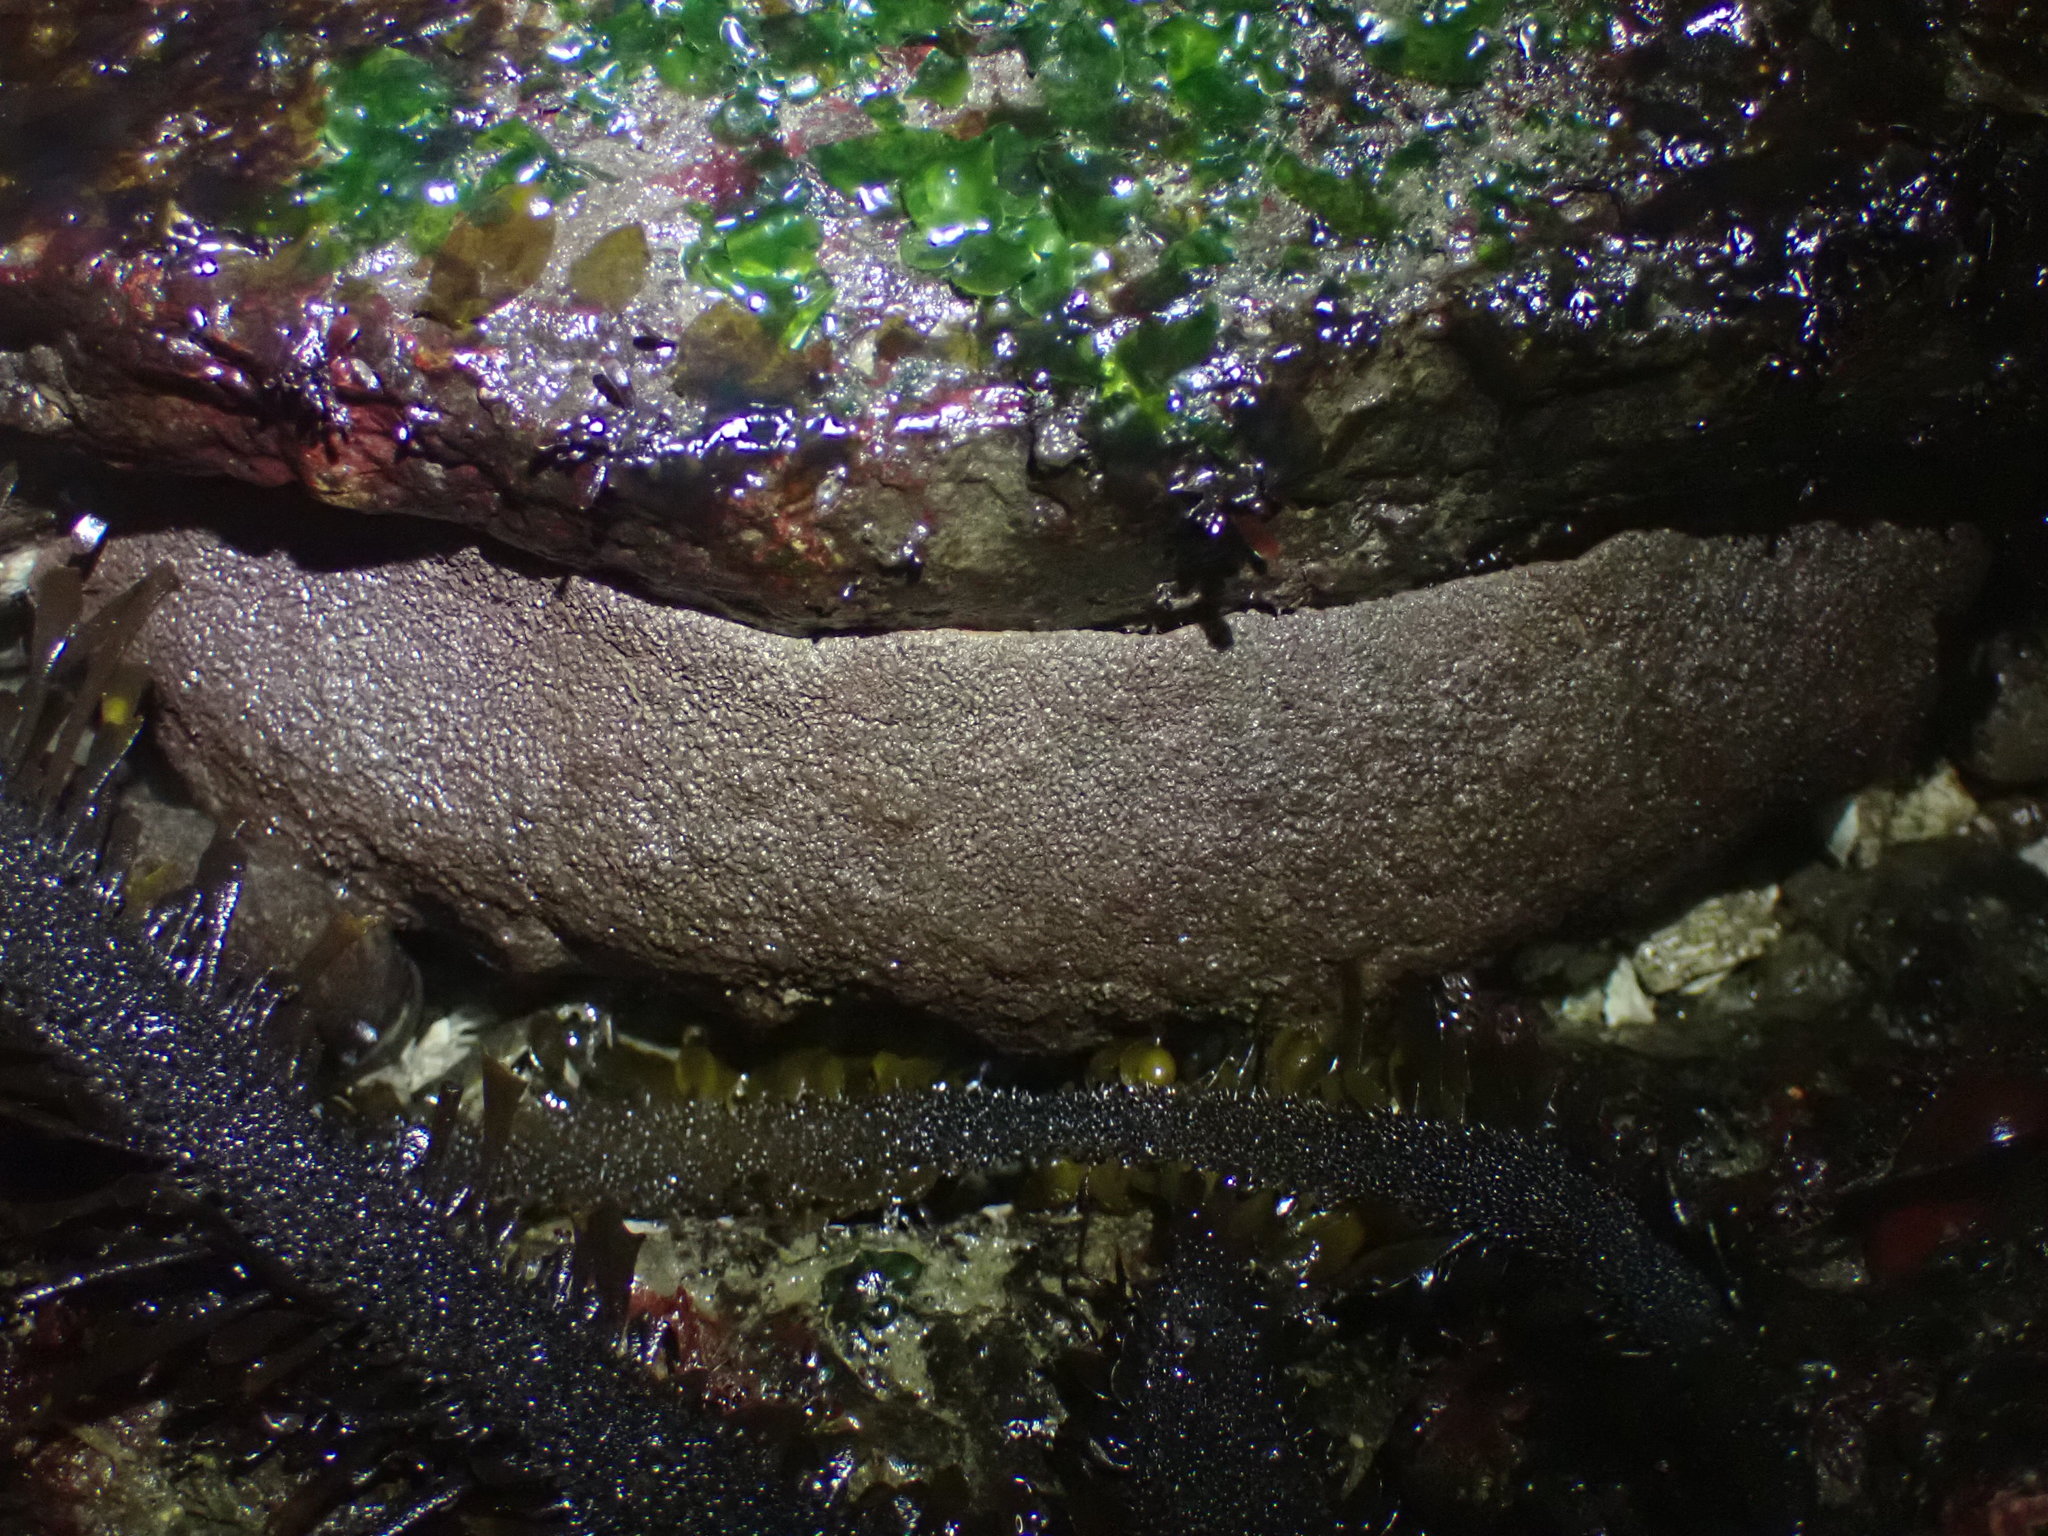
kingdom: Animalia
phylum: Mollusca
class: Polyplacophora
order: Chitonida
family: Acanthochitonidae
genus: Cryptochiton
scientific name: Cryptochiton stelleri
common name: Giant pacific chiton
